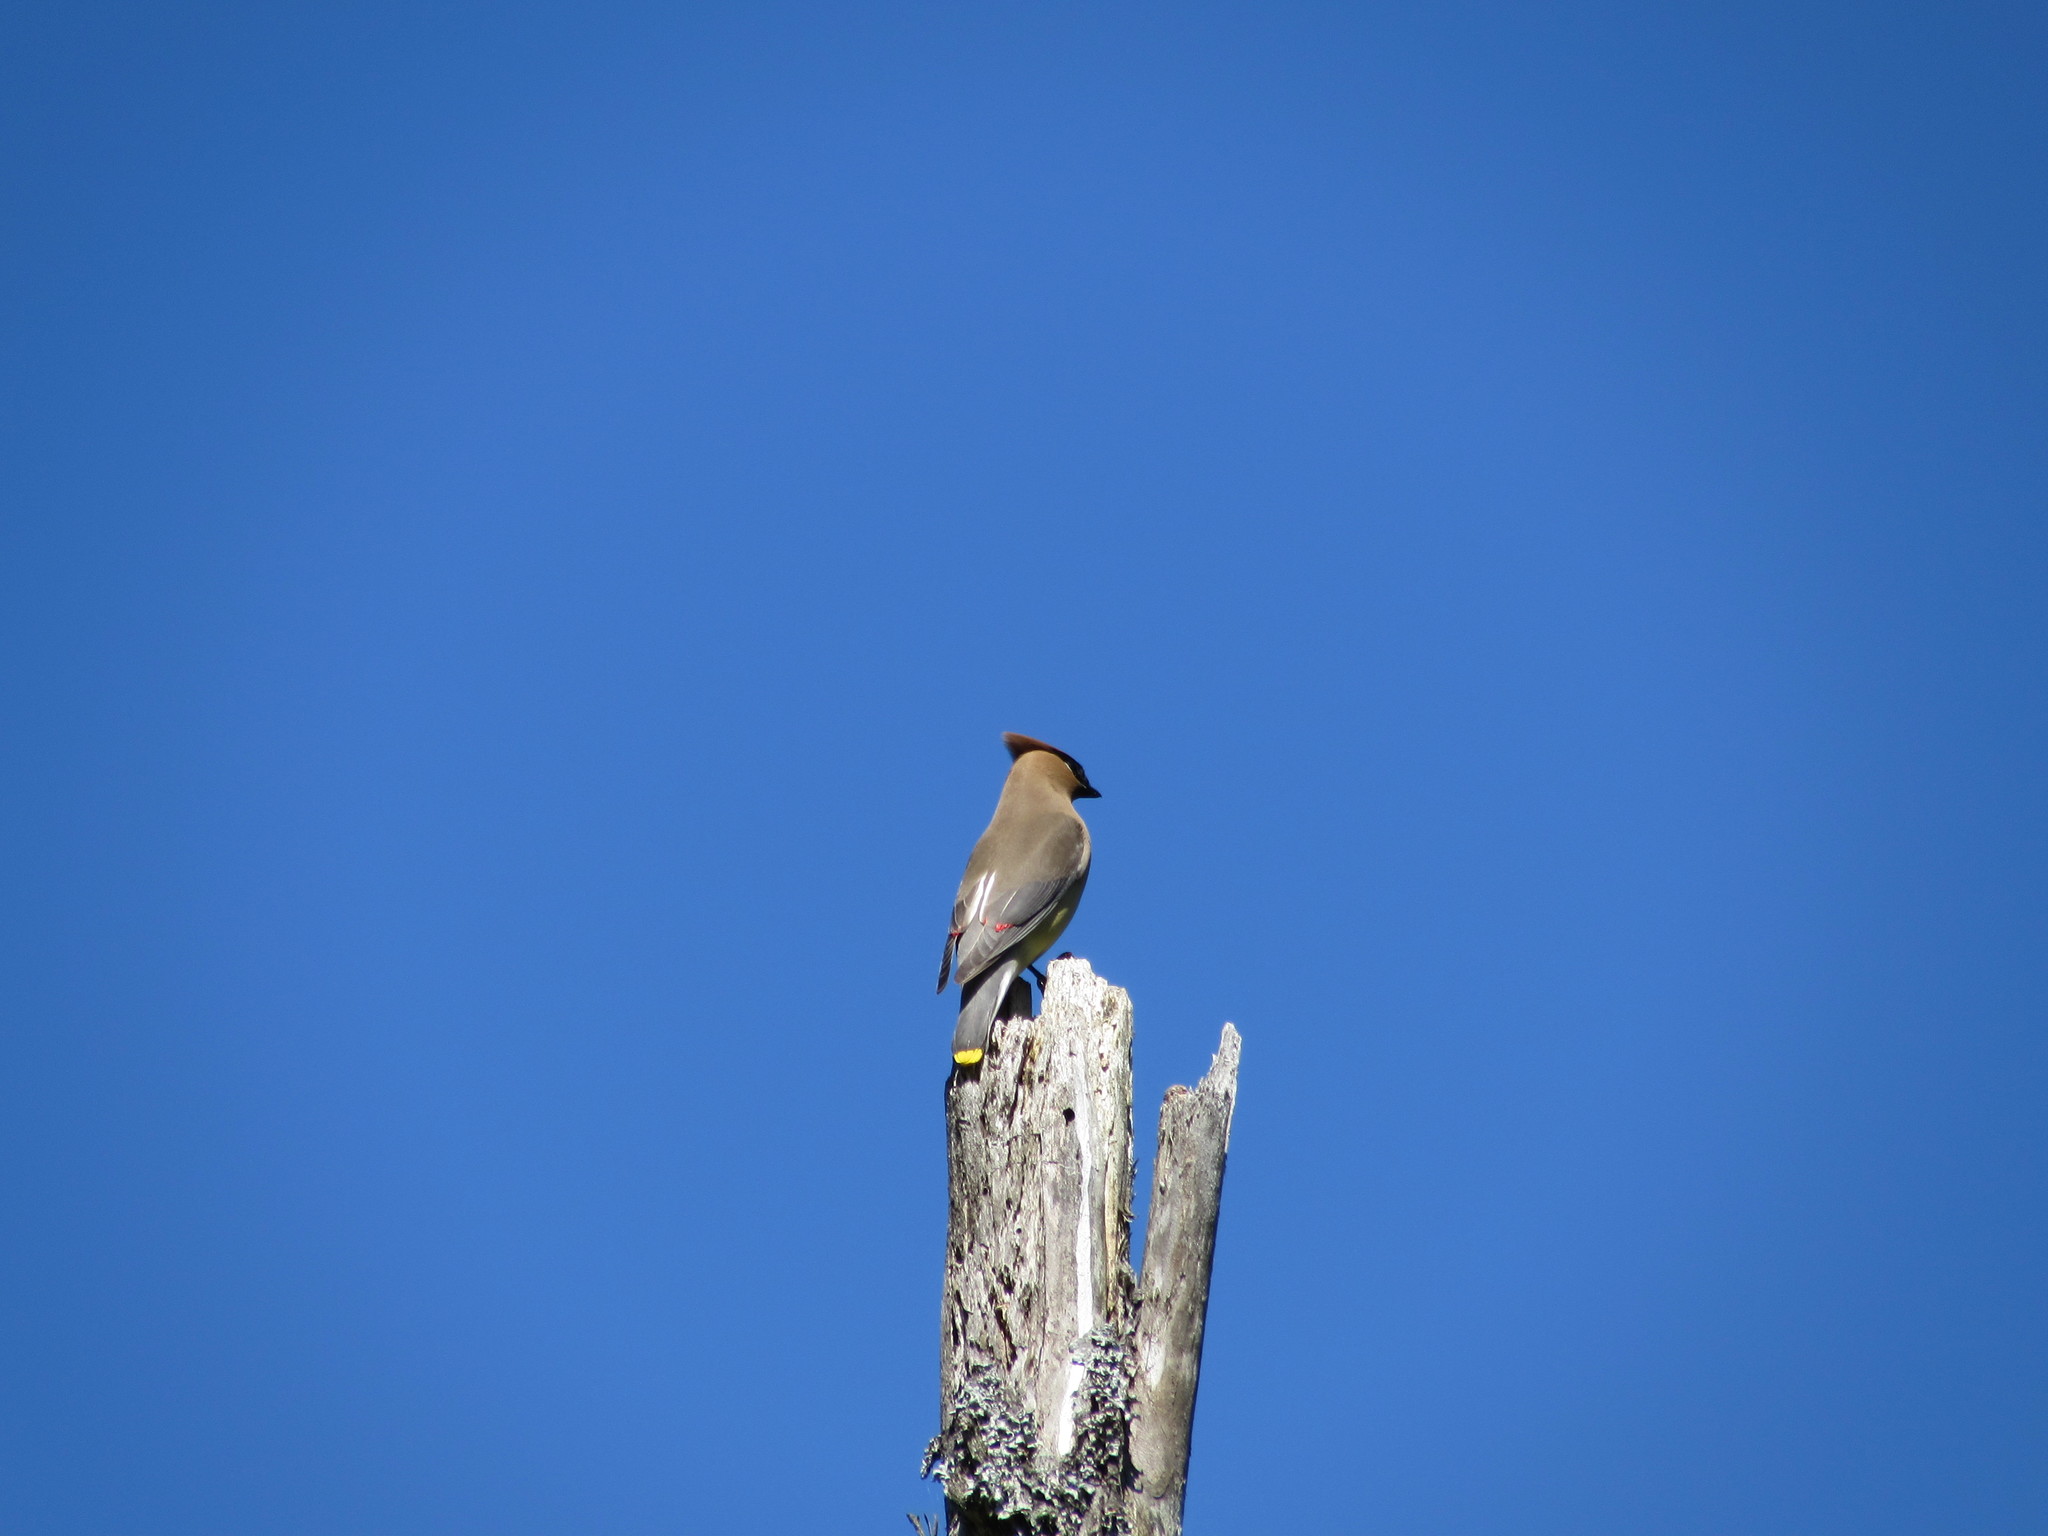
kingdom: Animalia
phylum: Chordata
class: Aves
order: Passeriformes
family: Bombycillidae
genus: Bombycilla
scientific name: Bombycilla cedrorum
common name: Cedar waxwing
